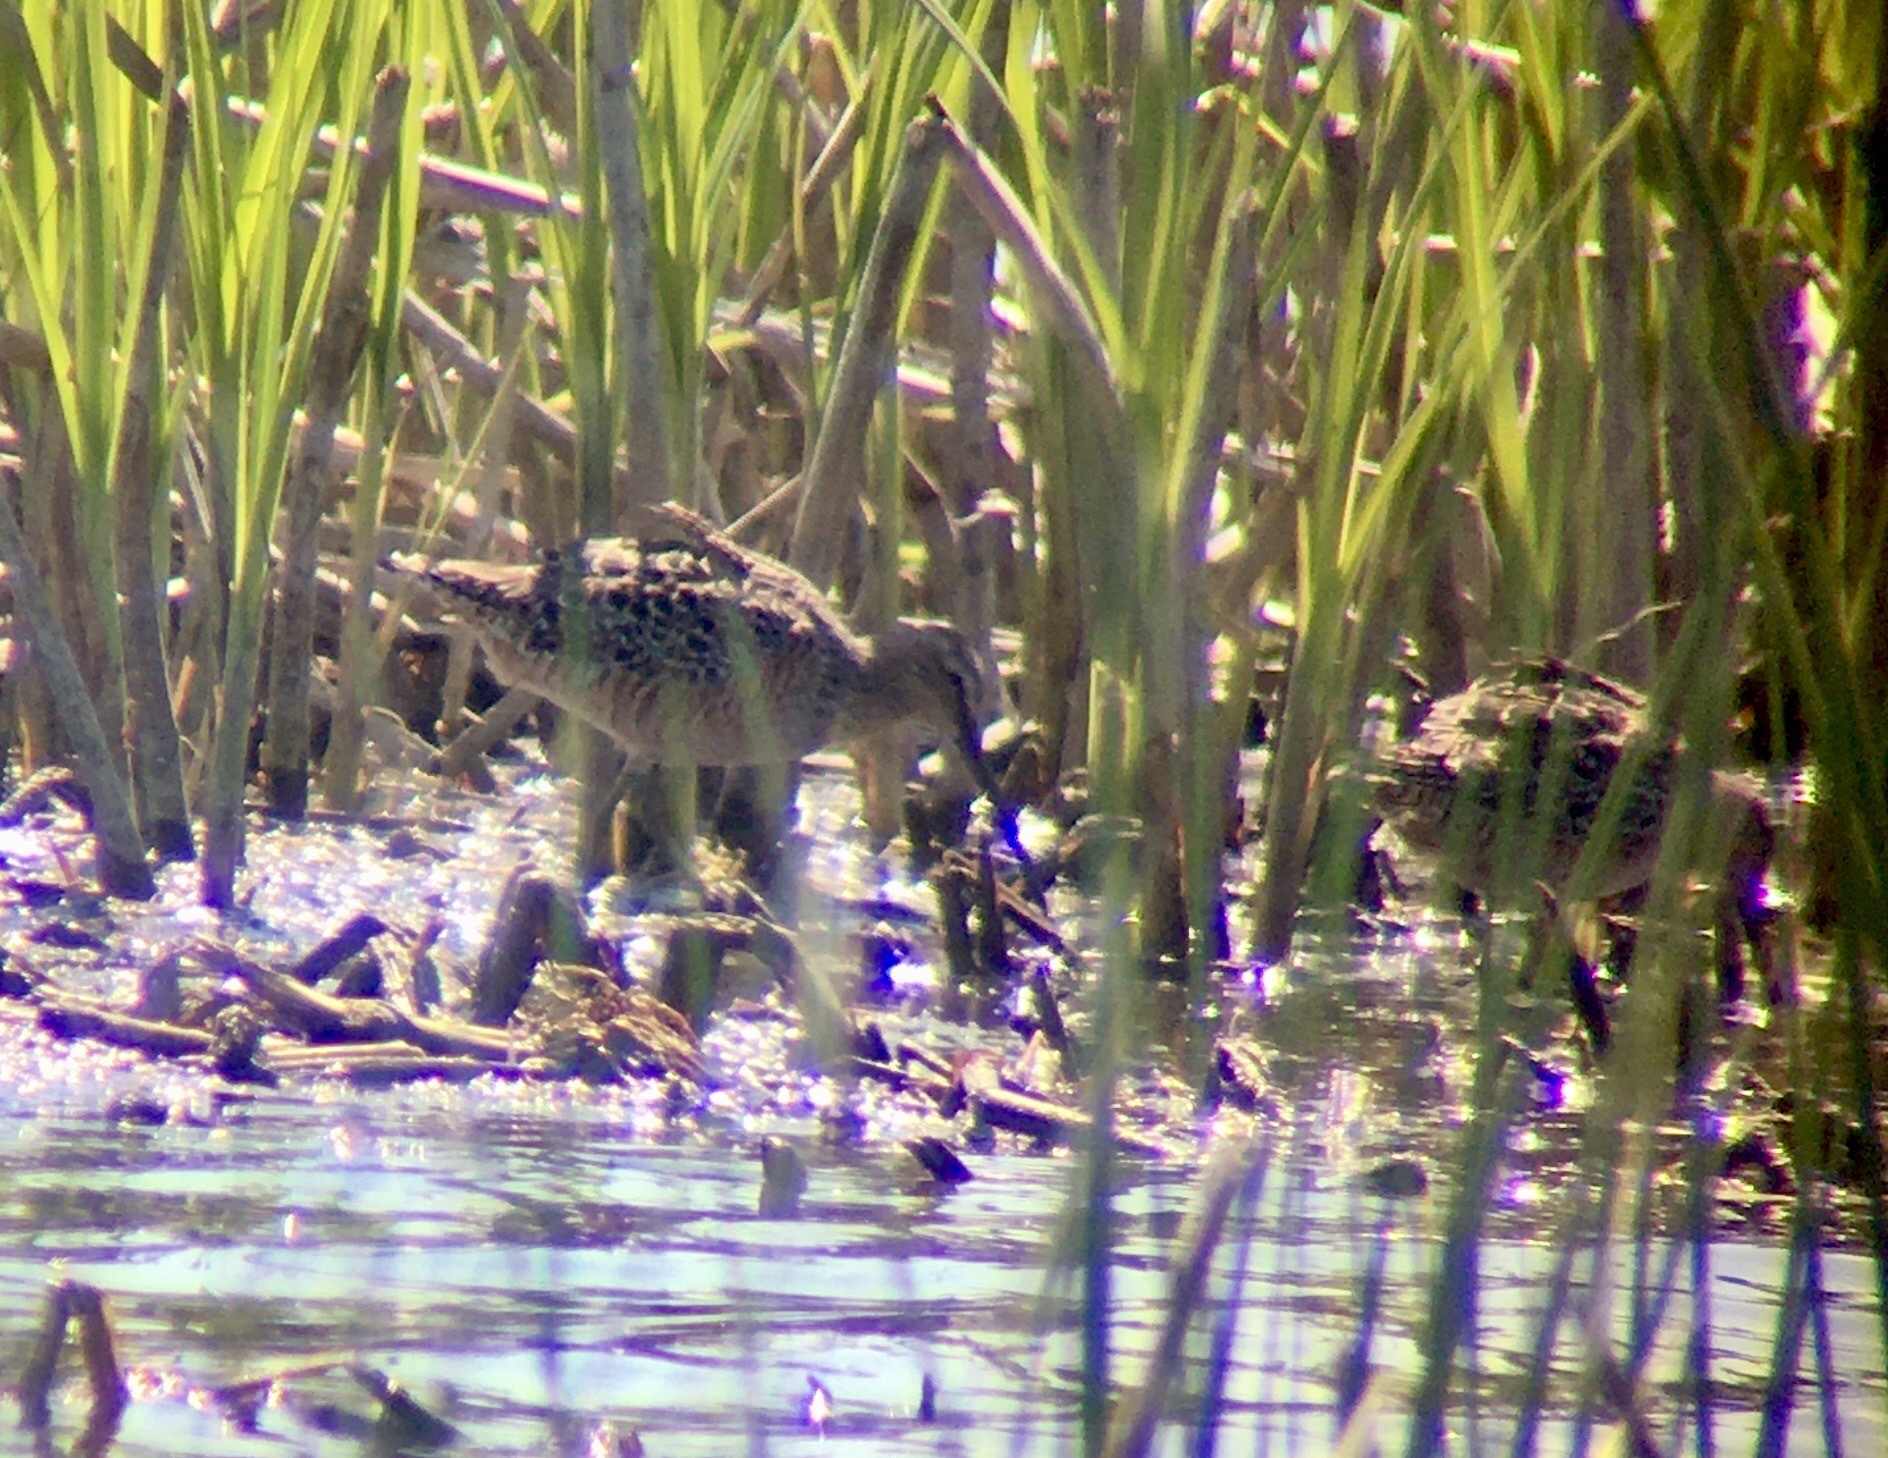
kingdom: Animalia
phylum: Chordata
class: Aves
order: Charadriiformes
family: Scolopacidae
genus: Limnodromus
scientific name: Limnodromus scolopaceus
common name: Long-billed dowitcher
